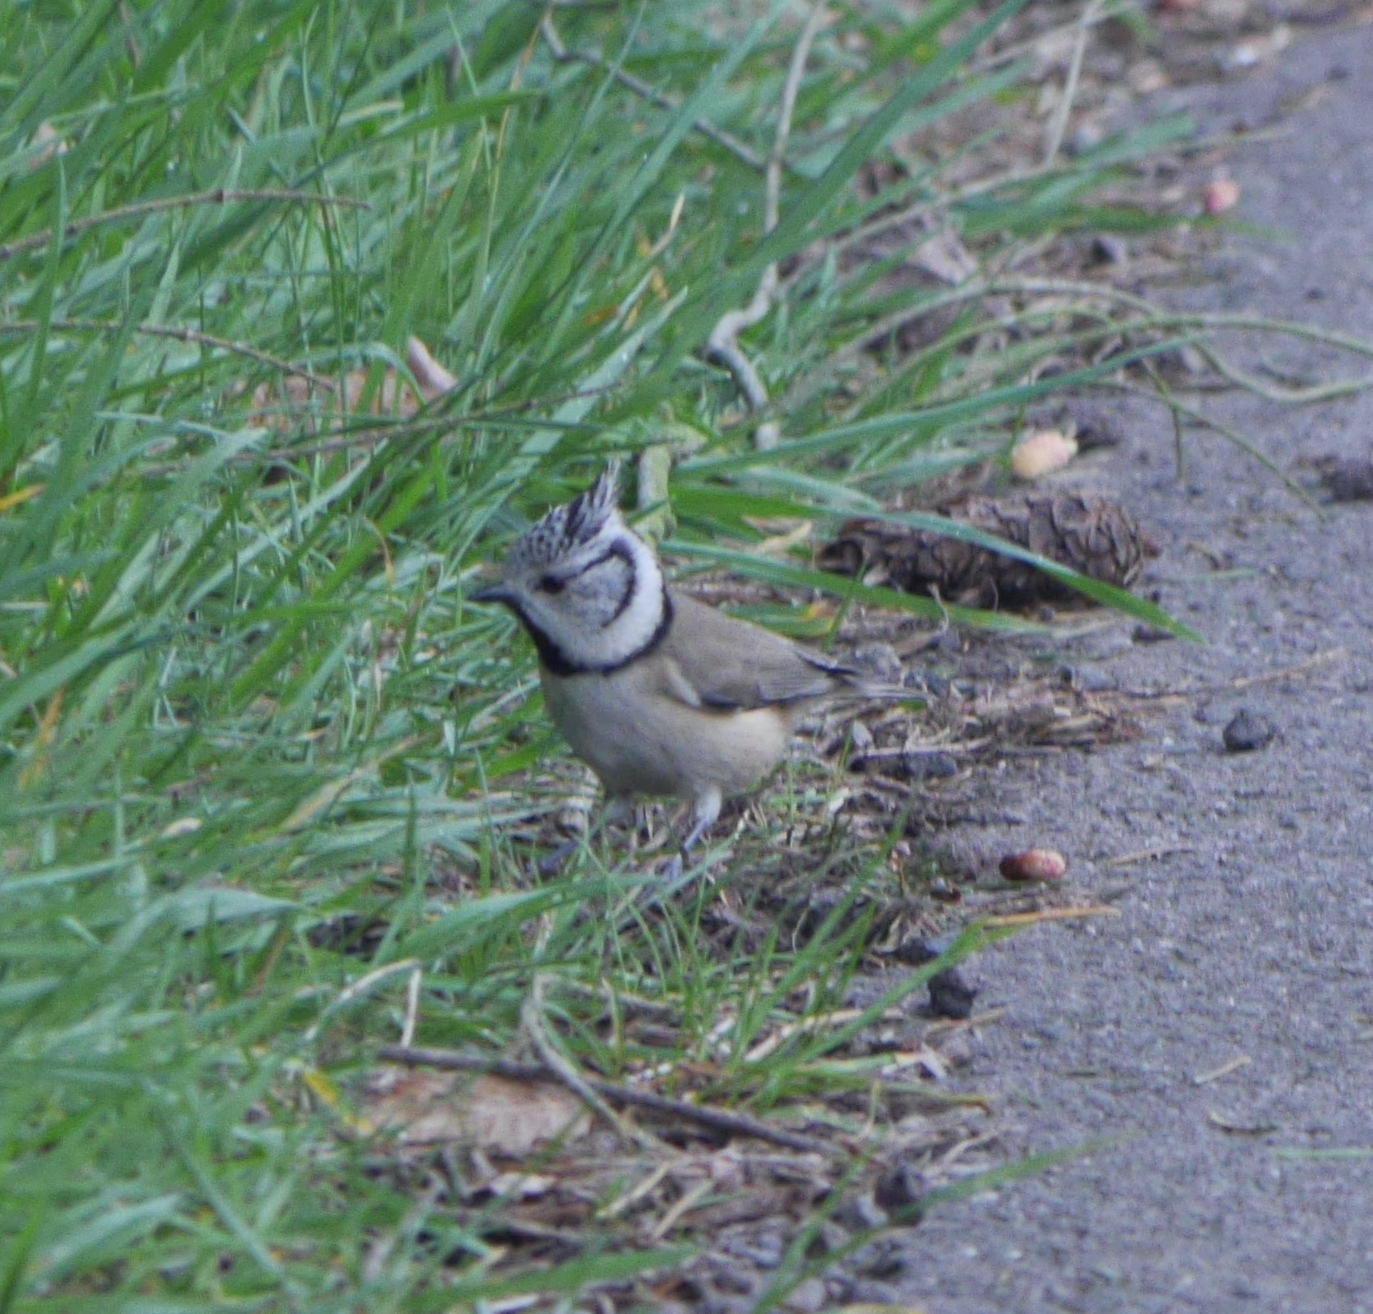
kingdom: Animalia
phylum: Chordata
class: Aves
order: Passeriformes
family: Paridae
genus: Lophophanes
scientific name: Lophophanes cristatus
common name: European crested tit
